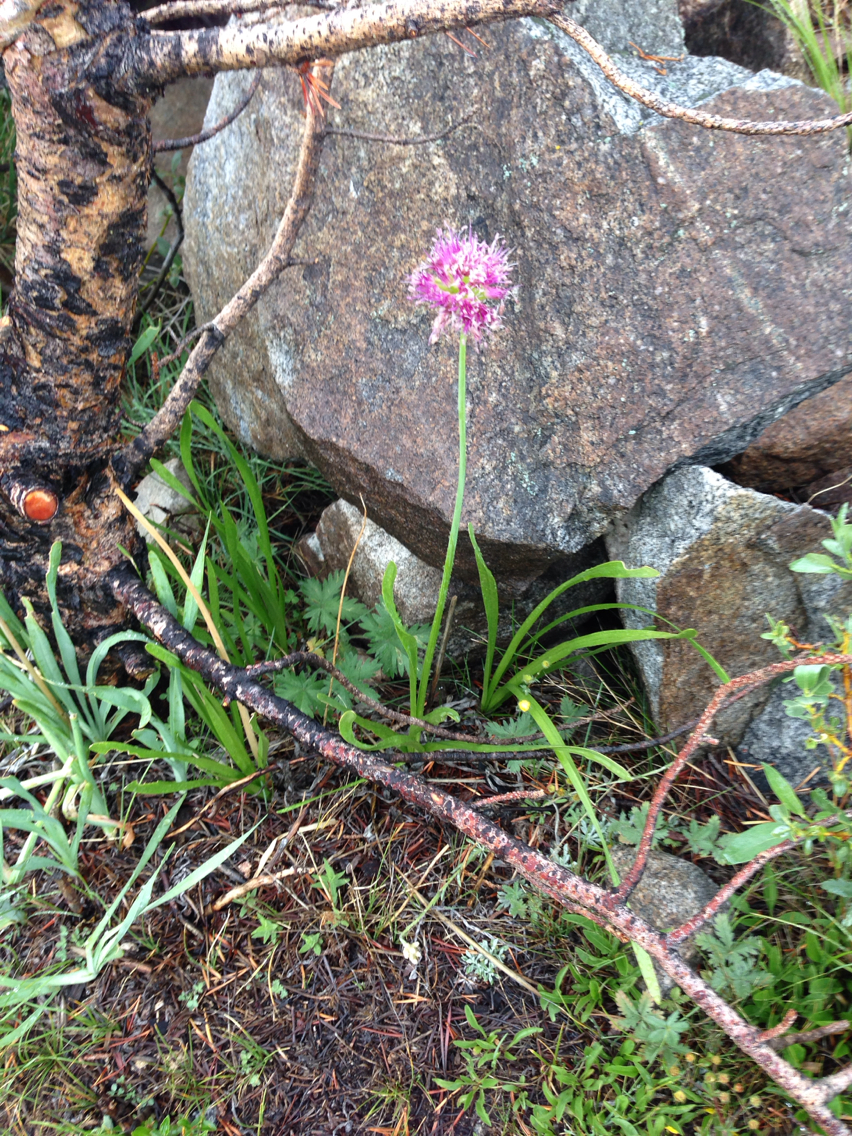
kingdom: Plantae
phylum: Tracheophyta
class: Liliopsida
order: Asparagales
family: Amaryllidaceae
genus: Allium
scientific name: Allium validum
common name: Pacific mountain onion
